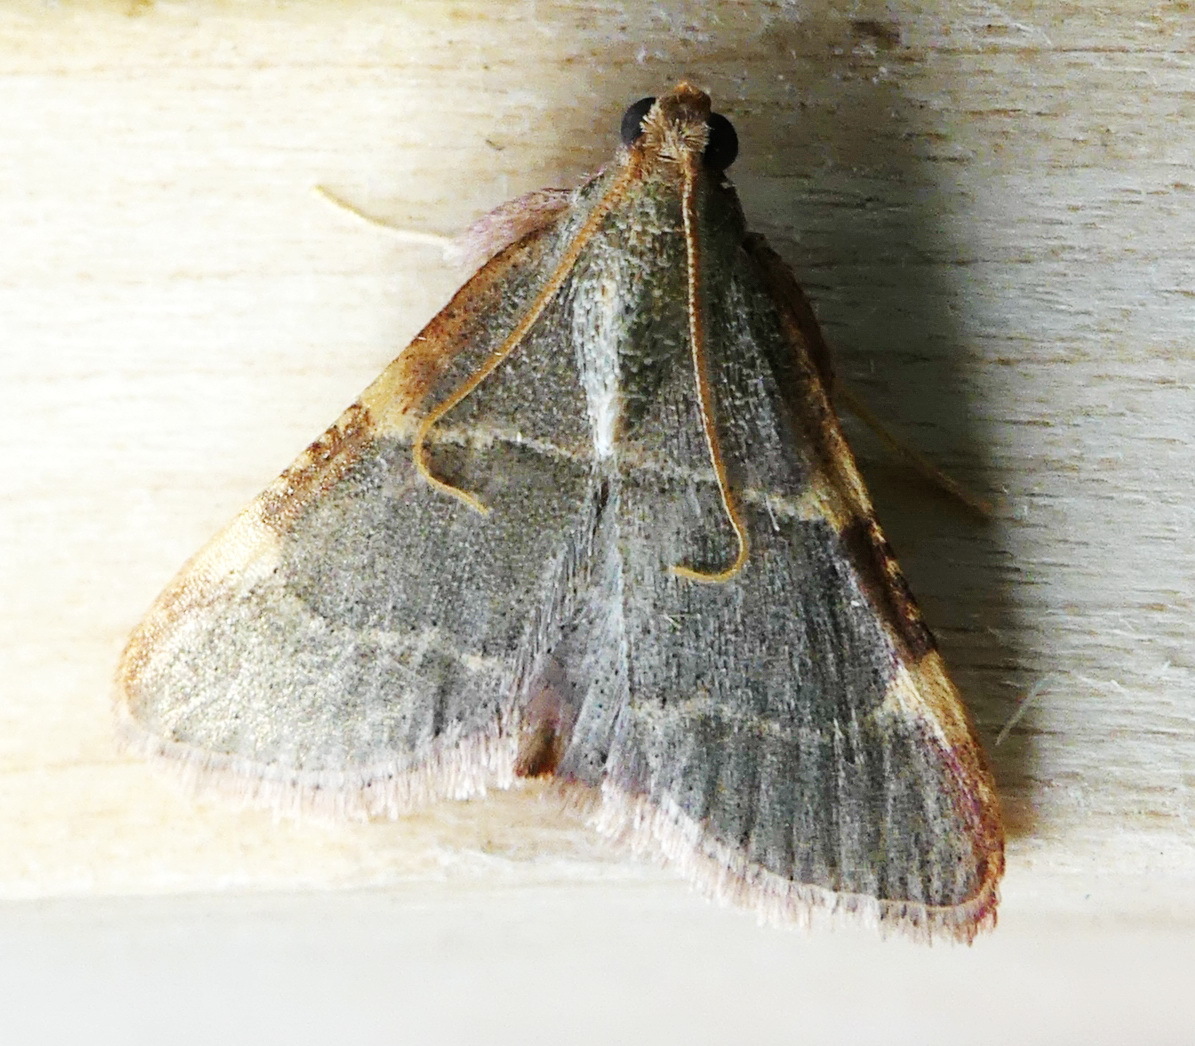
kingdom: Animalia
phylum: Arthropoda
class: Insecta
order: Lepidoptera
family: Pyralidae
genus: Hypsopygia
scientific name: Hypsopygia binodulalis
